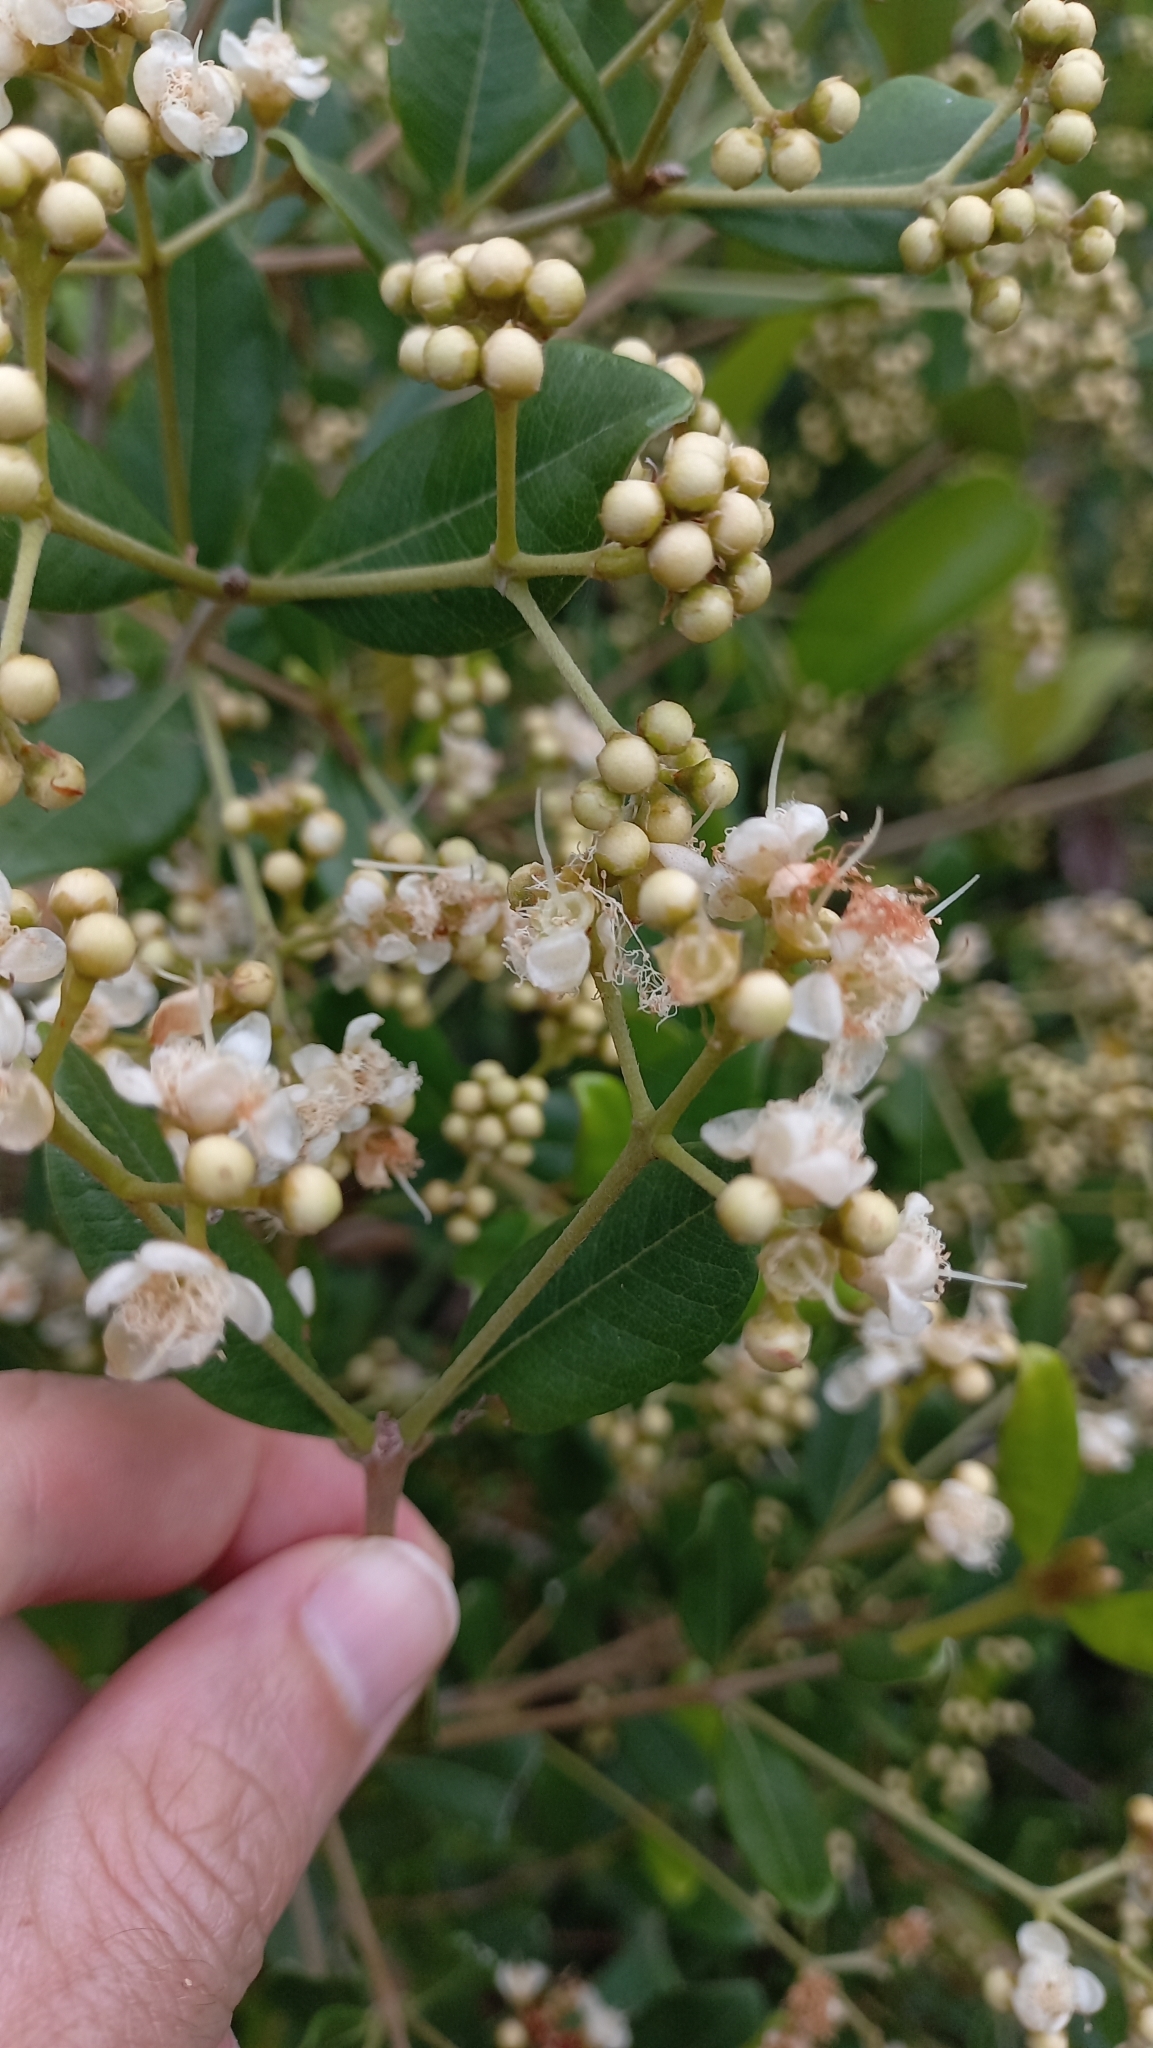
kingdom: Plantae
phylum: Tracheophyta
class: Magnoliopsida
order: Myrtales
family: Myrtaceae
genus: Myrcia
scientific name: Myrcia palustris
